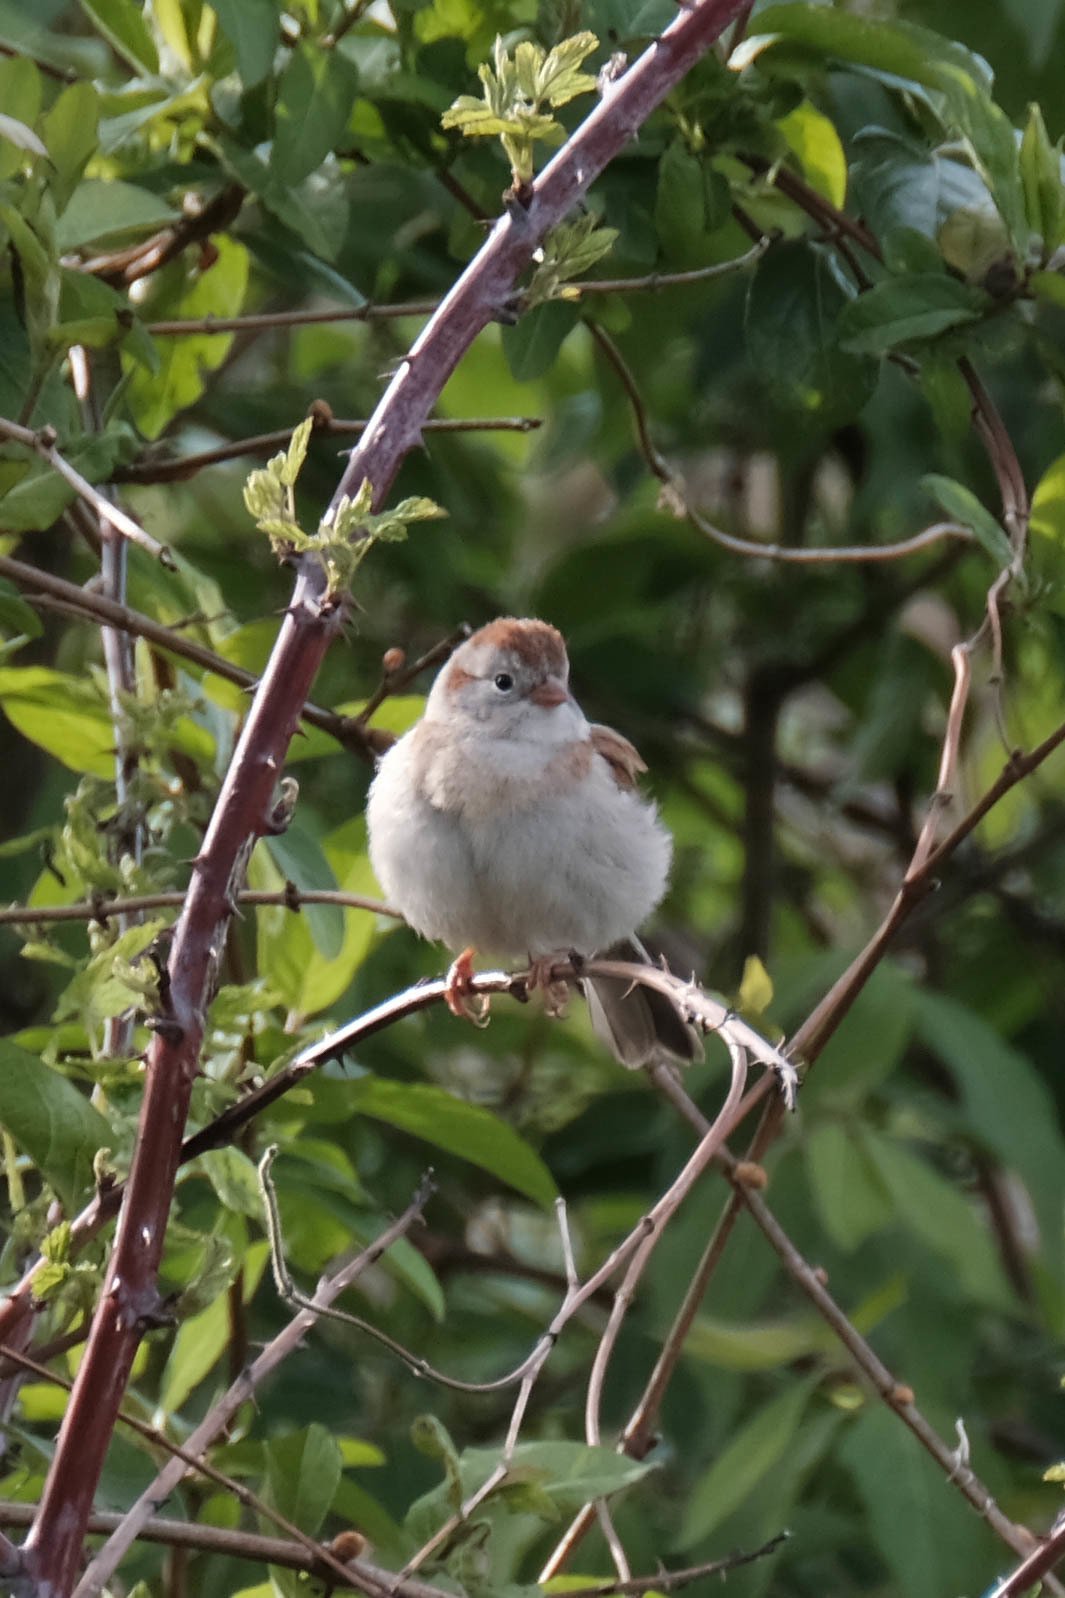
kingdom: Animalia
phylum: Chordata
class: Aves
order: Passeriformes
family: Passerellidae
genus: Spizella
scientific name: Spizella pusilla
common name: Field sparrow
